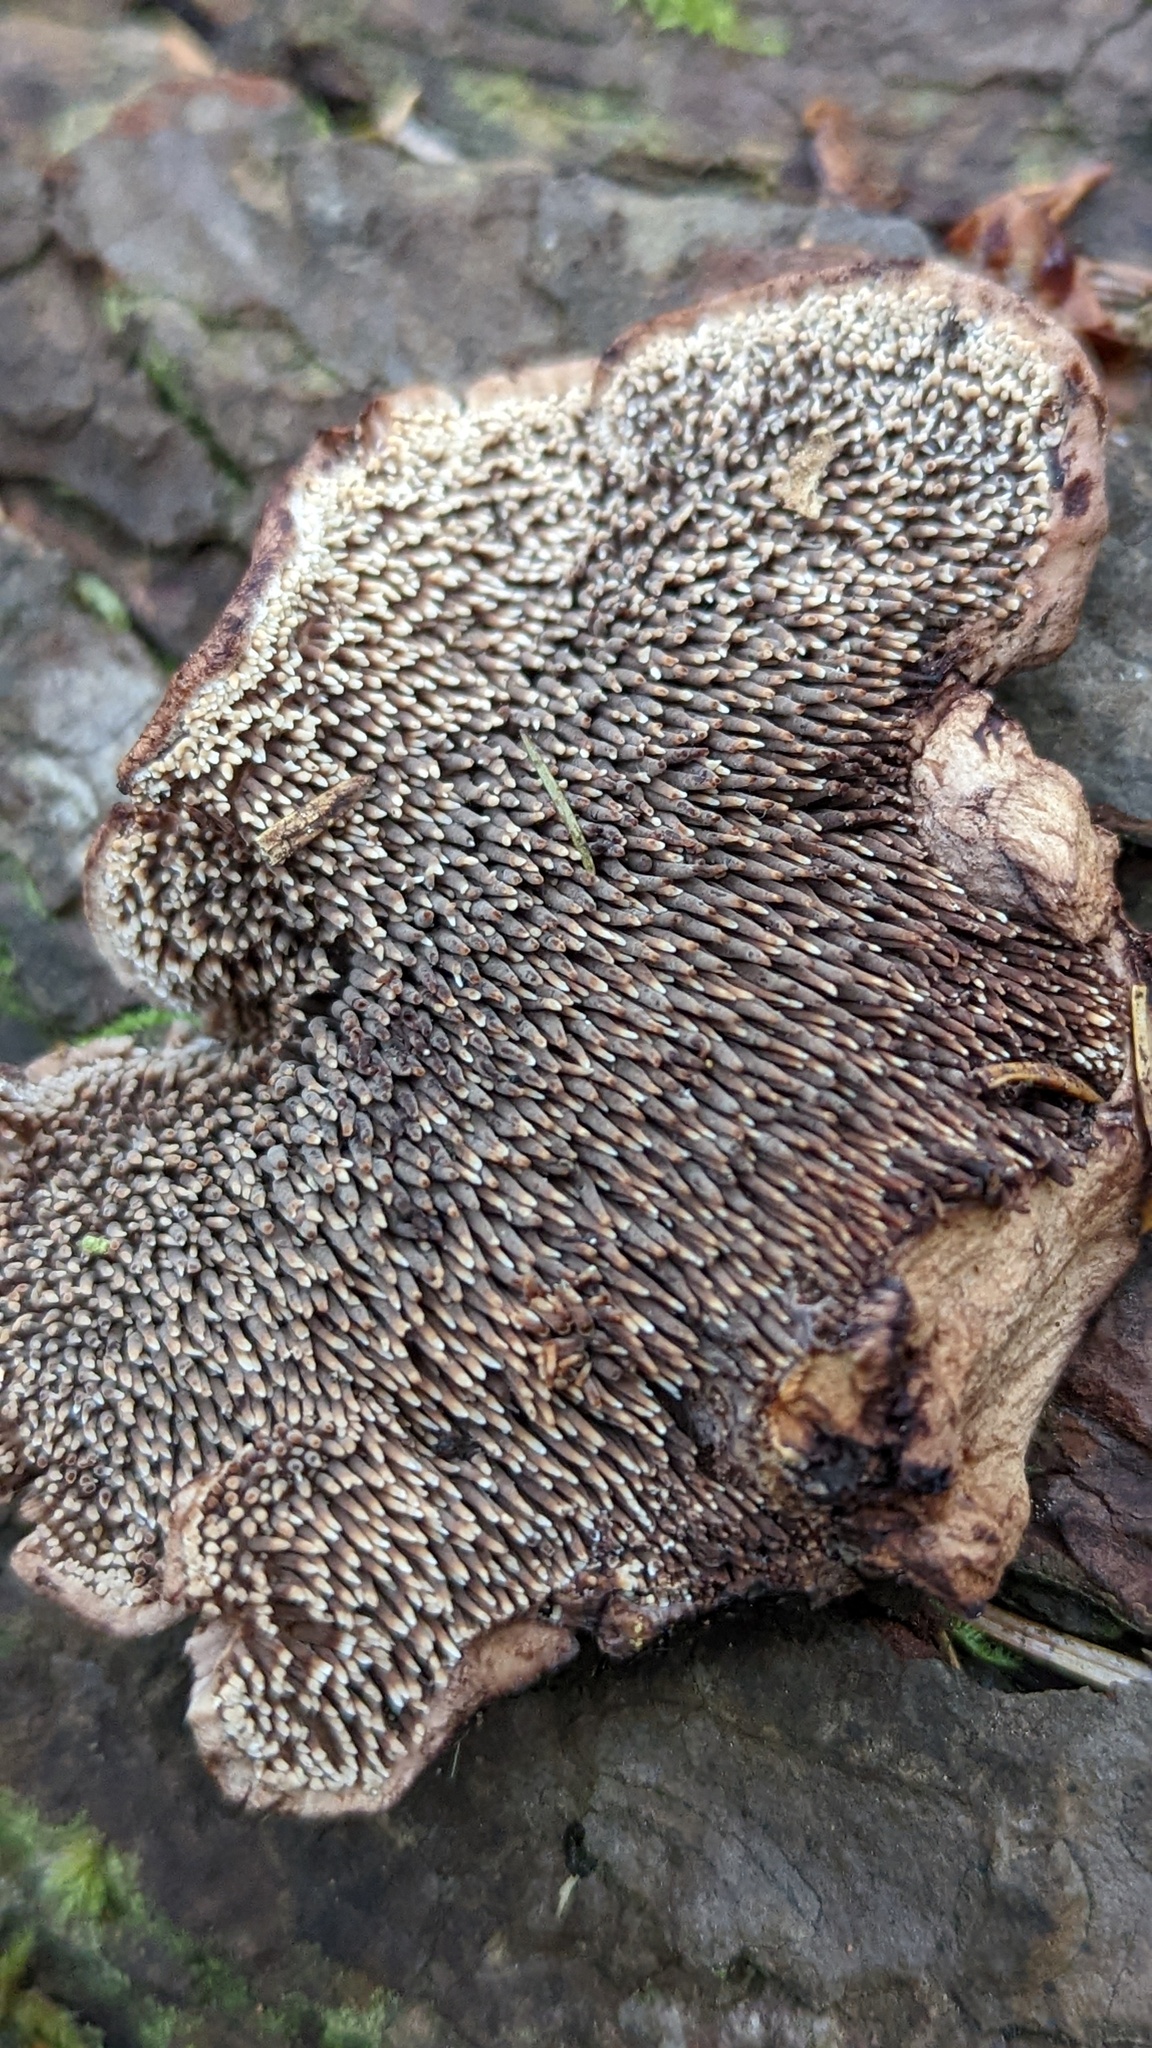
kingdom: Fungi
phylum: Basidiomycota
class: Agaricomycetes
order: Thelephorales
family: Bankeraceae
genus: Sarcodon
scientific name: Sarcodon stereosarcinon
